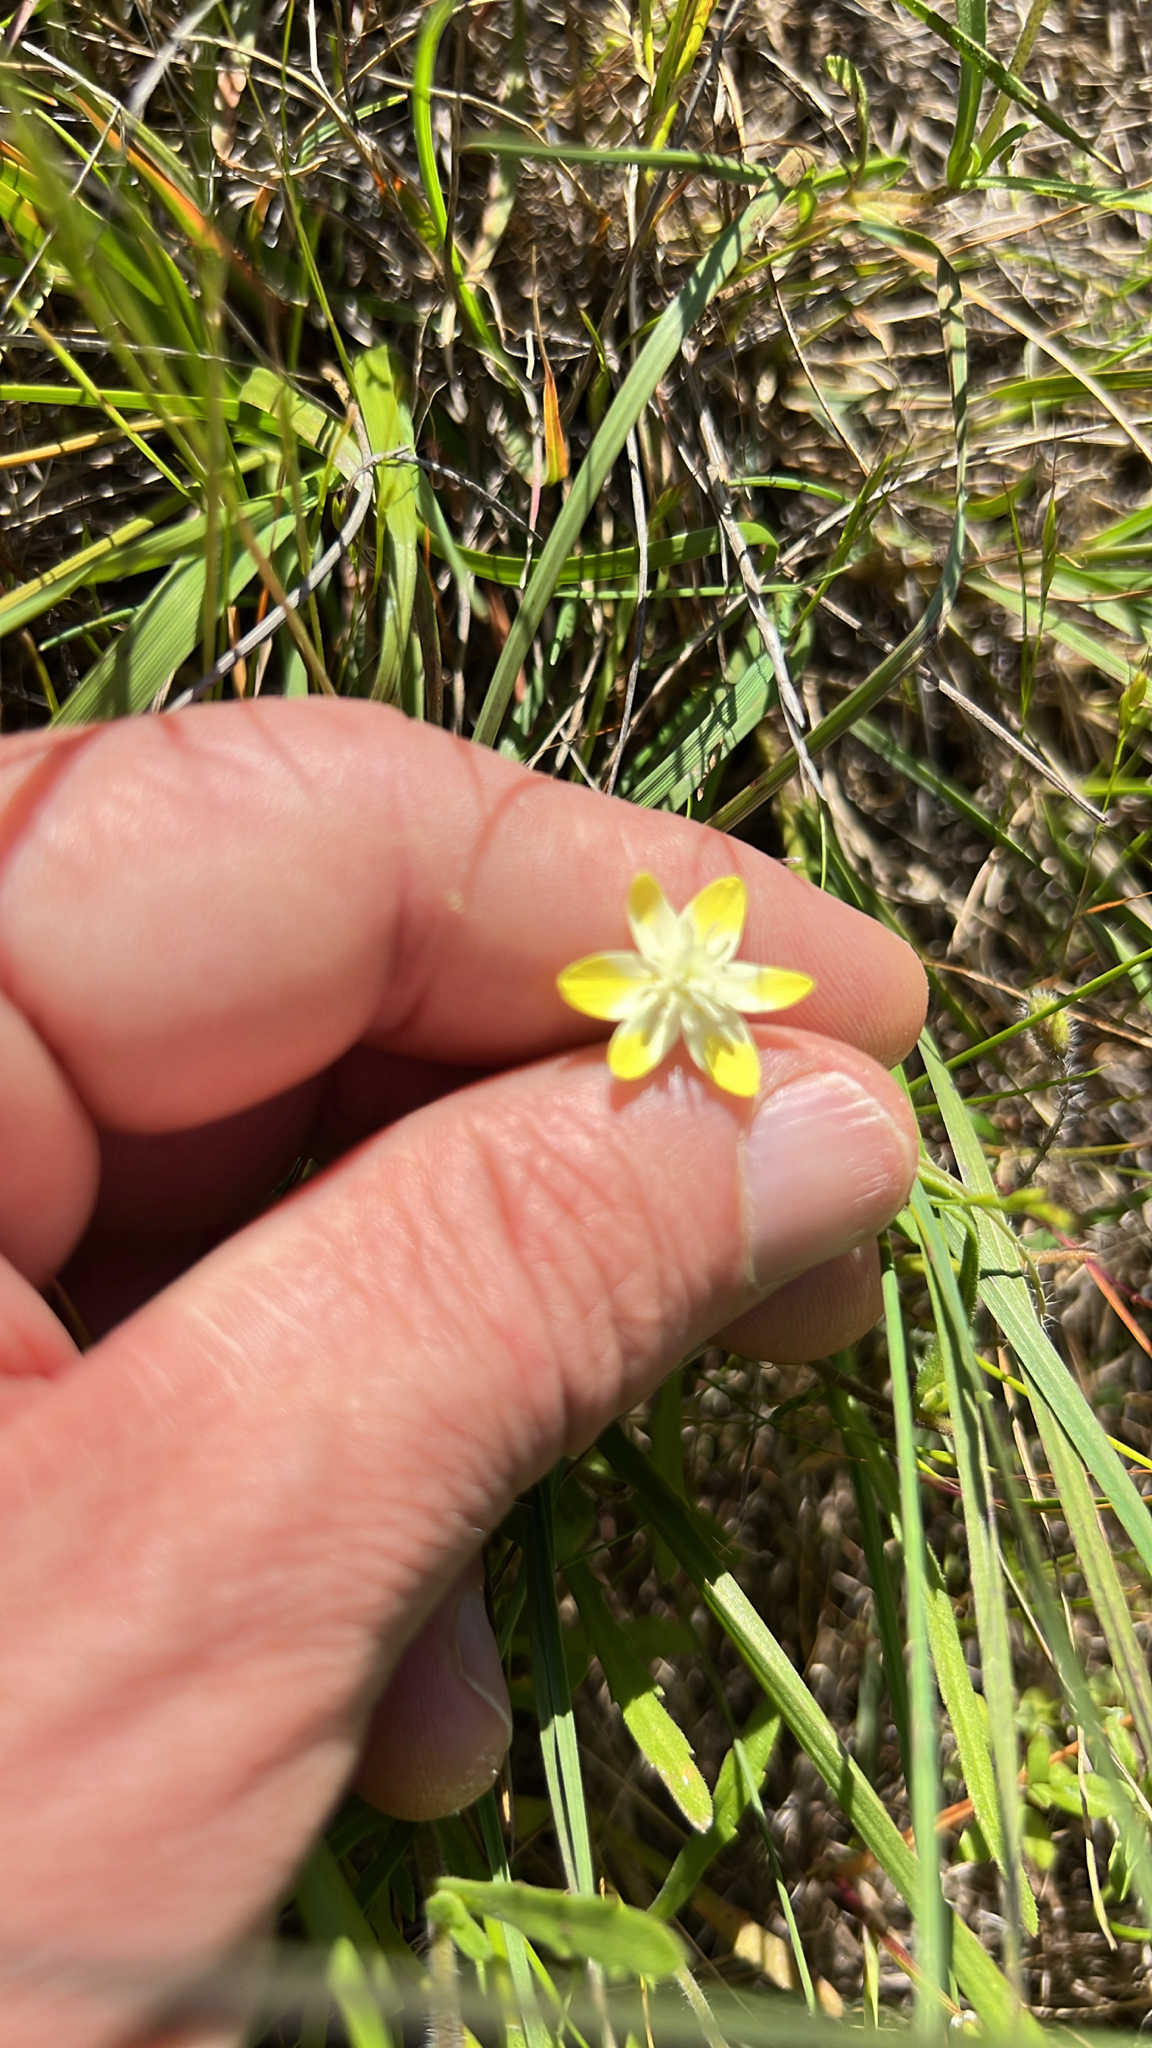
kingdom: Plantae
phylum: Tracheophyta
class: Magnoliopsida
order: Ranunculales
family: Papaveraceae
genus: Platystemon
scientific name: Platystemon californicus
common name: Cream-cups
